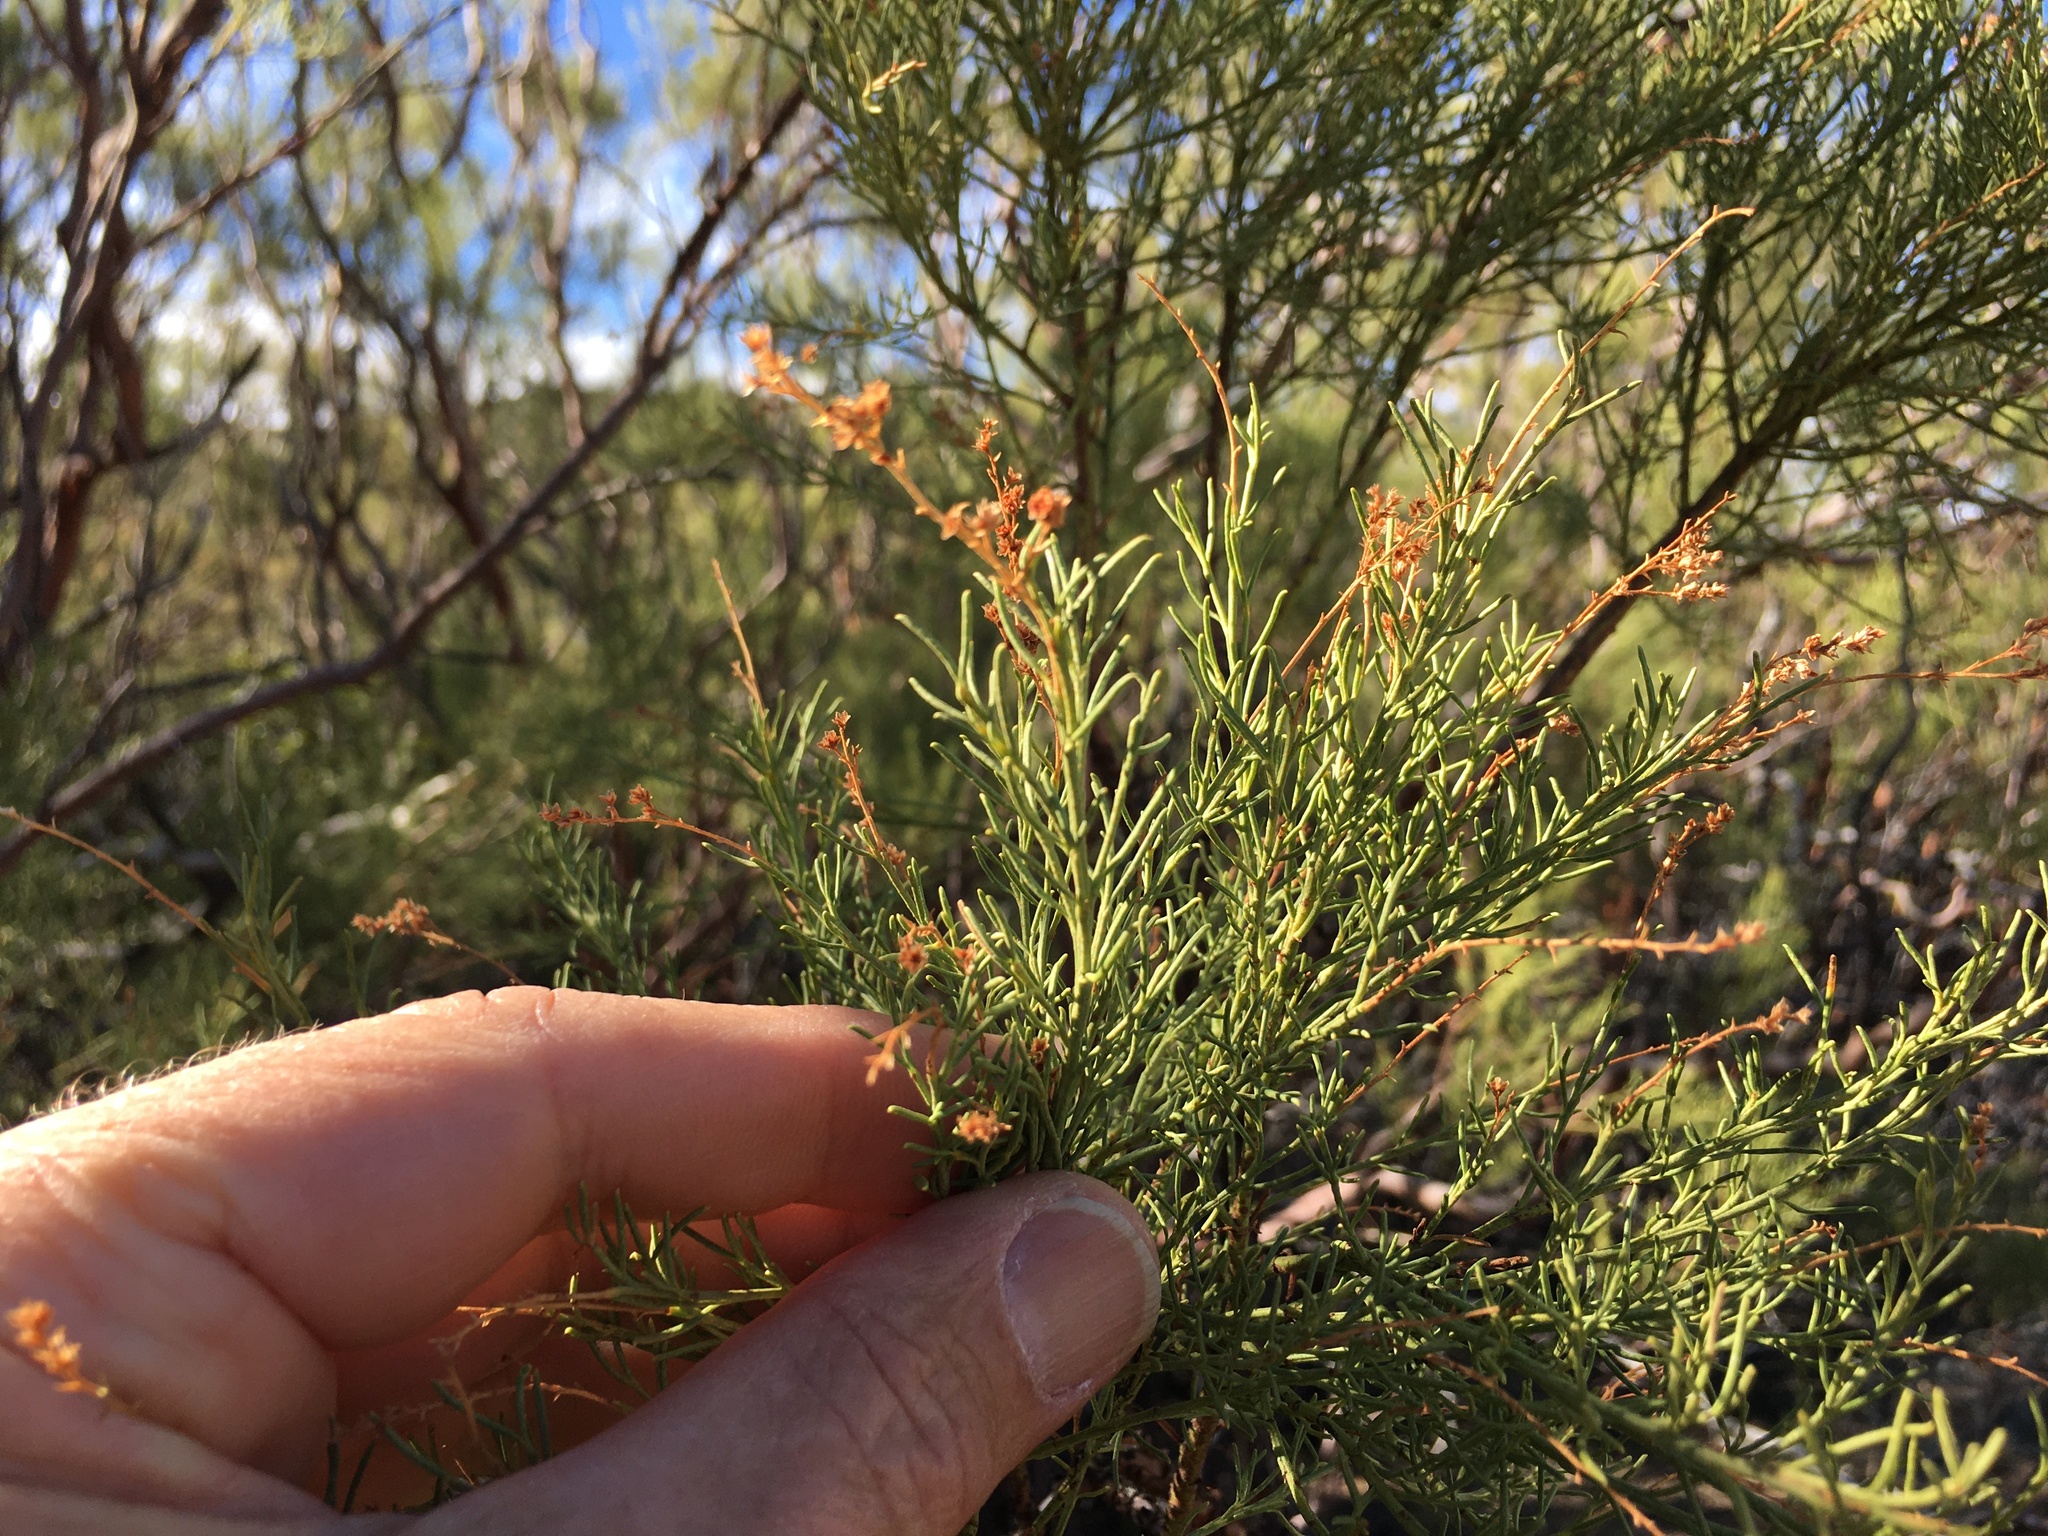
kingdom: Plantae
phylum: Tracheophyta
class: Magnoliopsida
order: Rosales
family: Rosaceae
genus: Adenostoma
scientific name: Adenostoma sparsifolium
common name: Red shank
